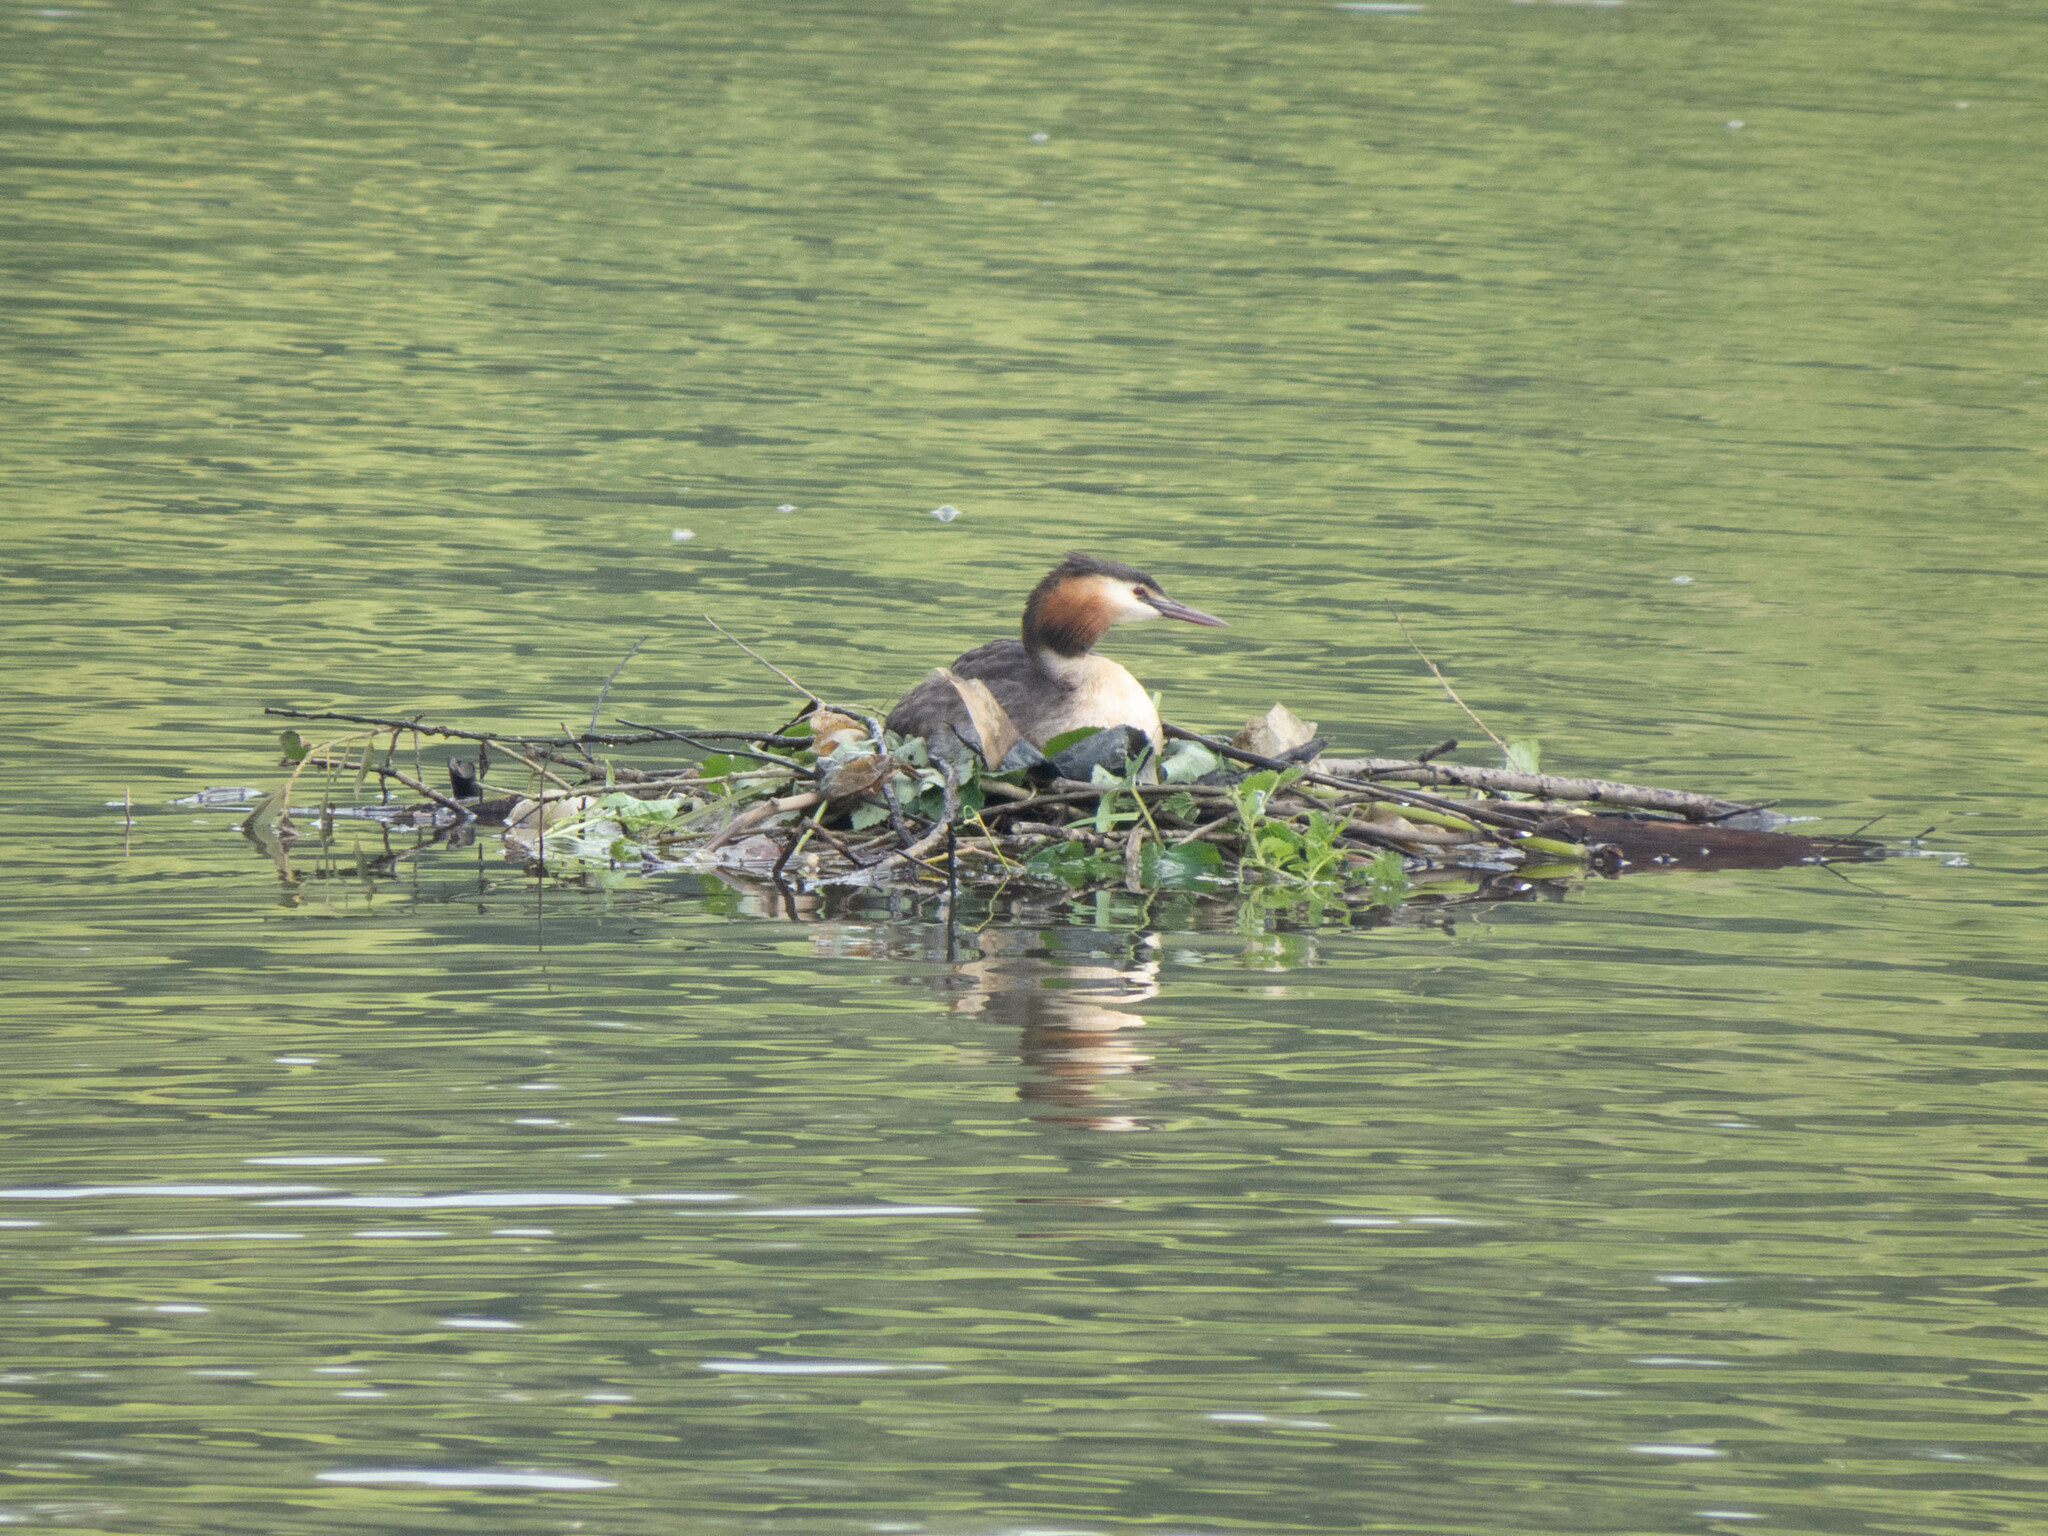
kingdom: Animalia
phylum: Chordata
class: Aves
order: Podicipediformes
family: Podicipedidae
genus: Podiceps
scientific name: Podiceps cristatus
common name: Great crested grebe
